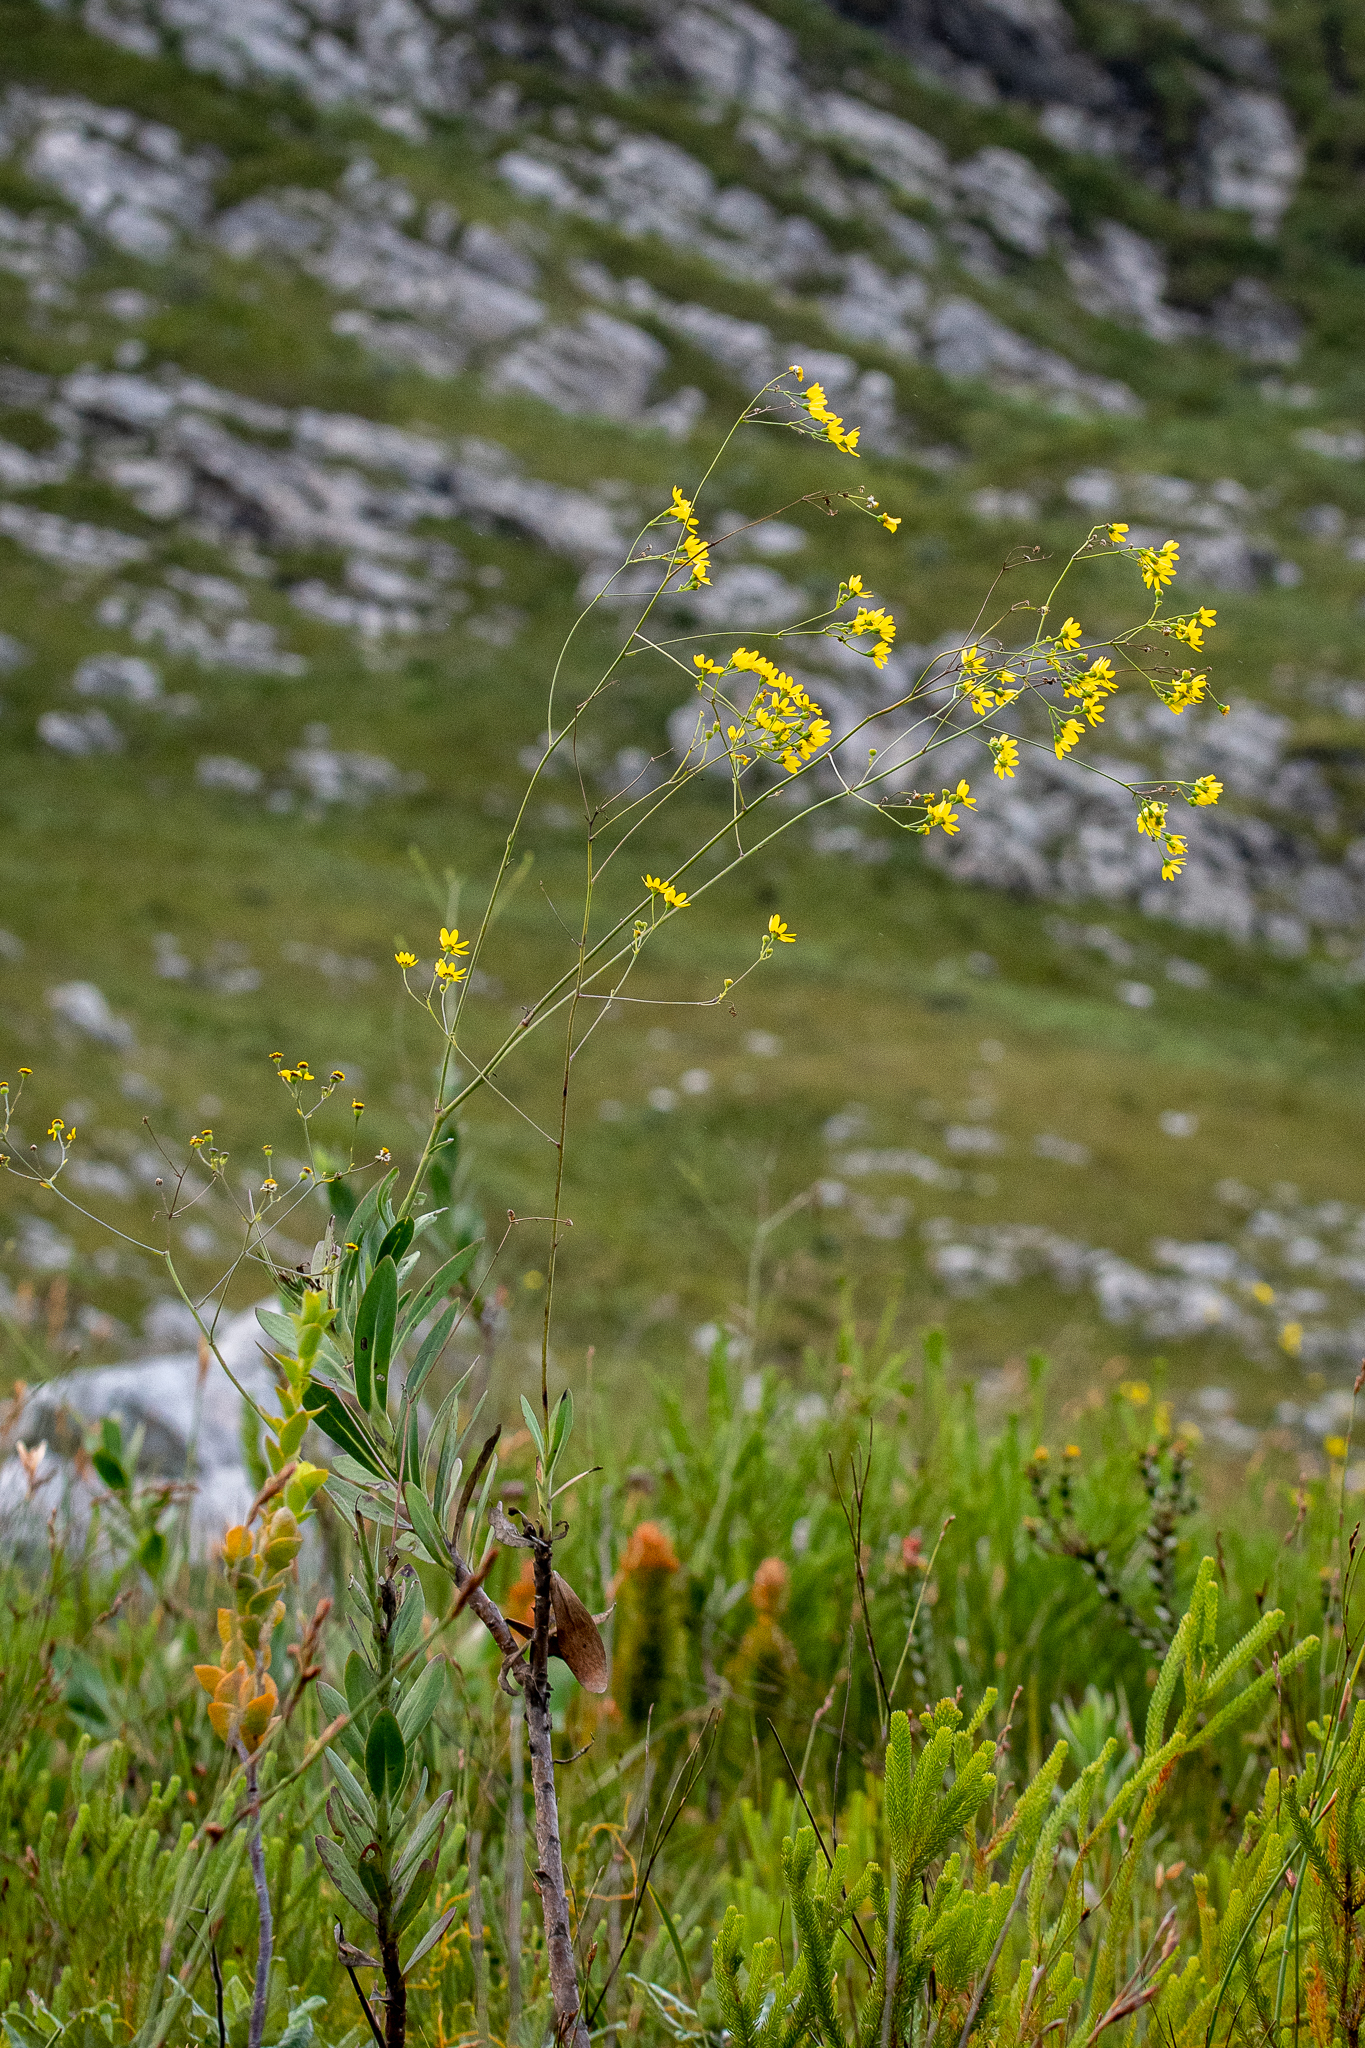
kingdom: Plantae
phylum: Tracheophyta
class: Magnoliopsida
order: Asterales
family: Asteraceae
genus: Othonna
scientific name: Othonna quinquedentata
